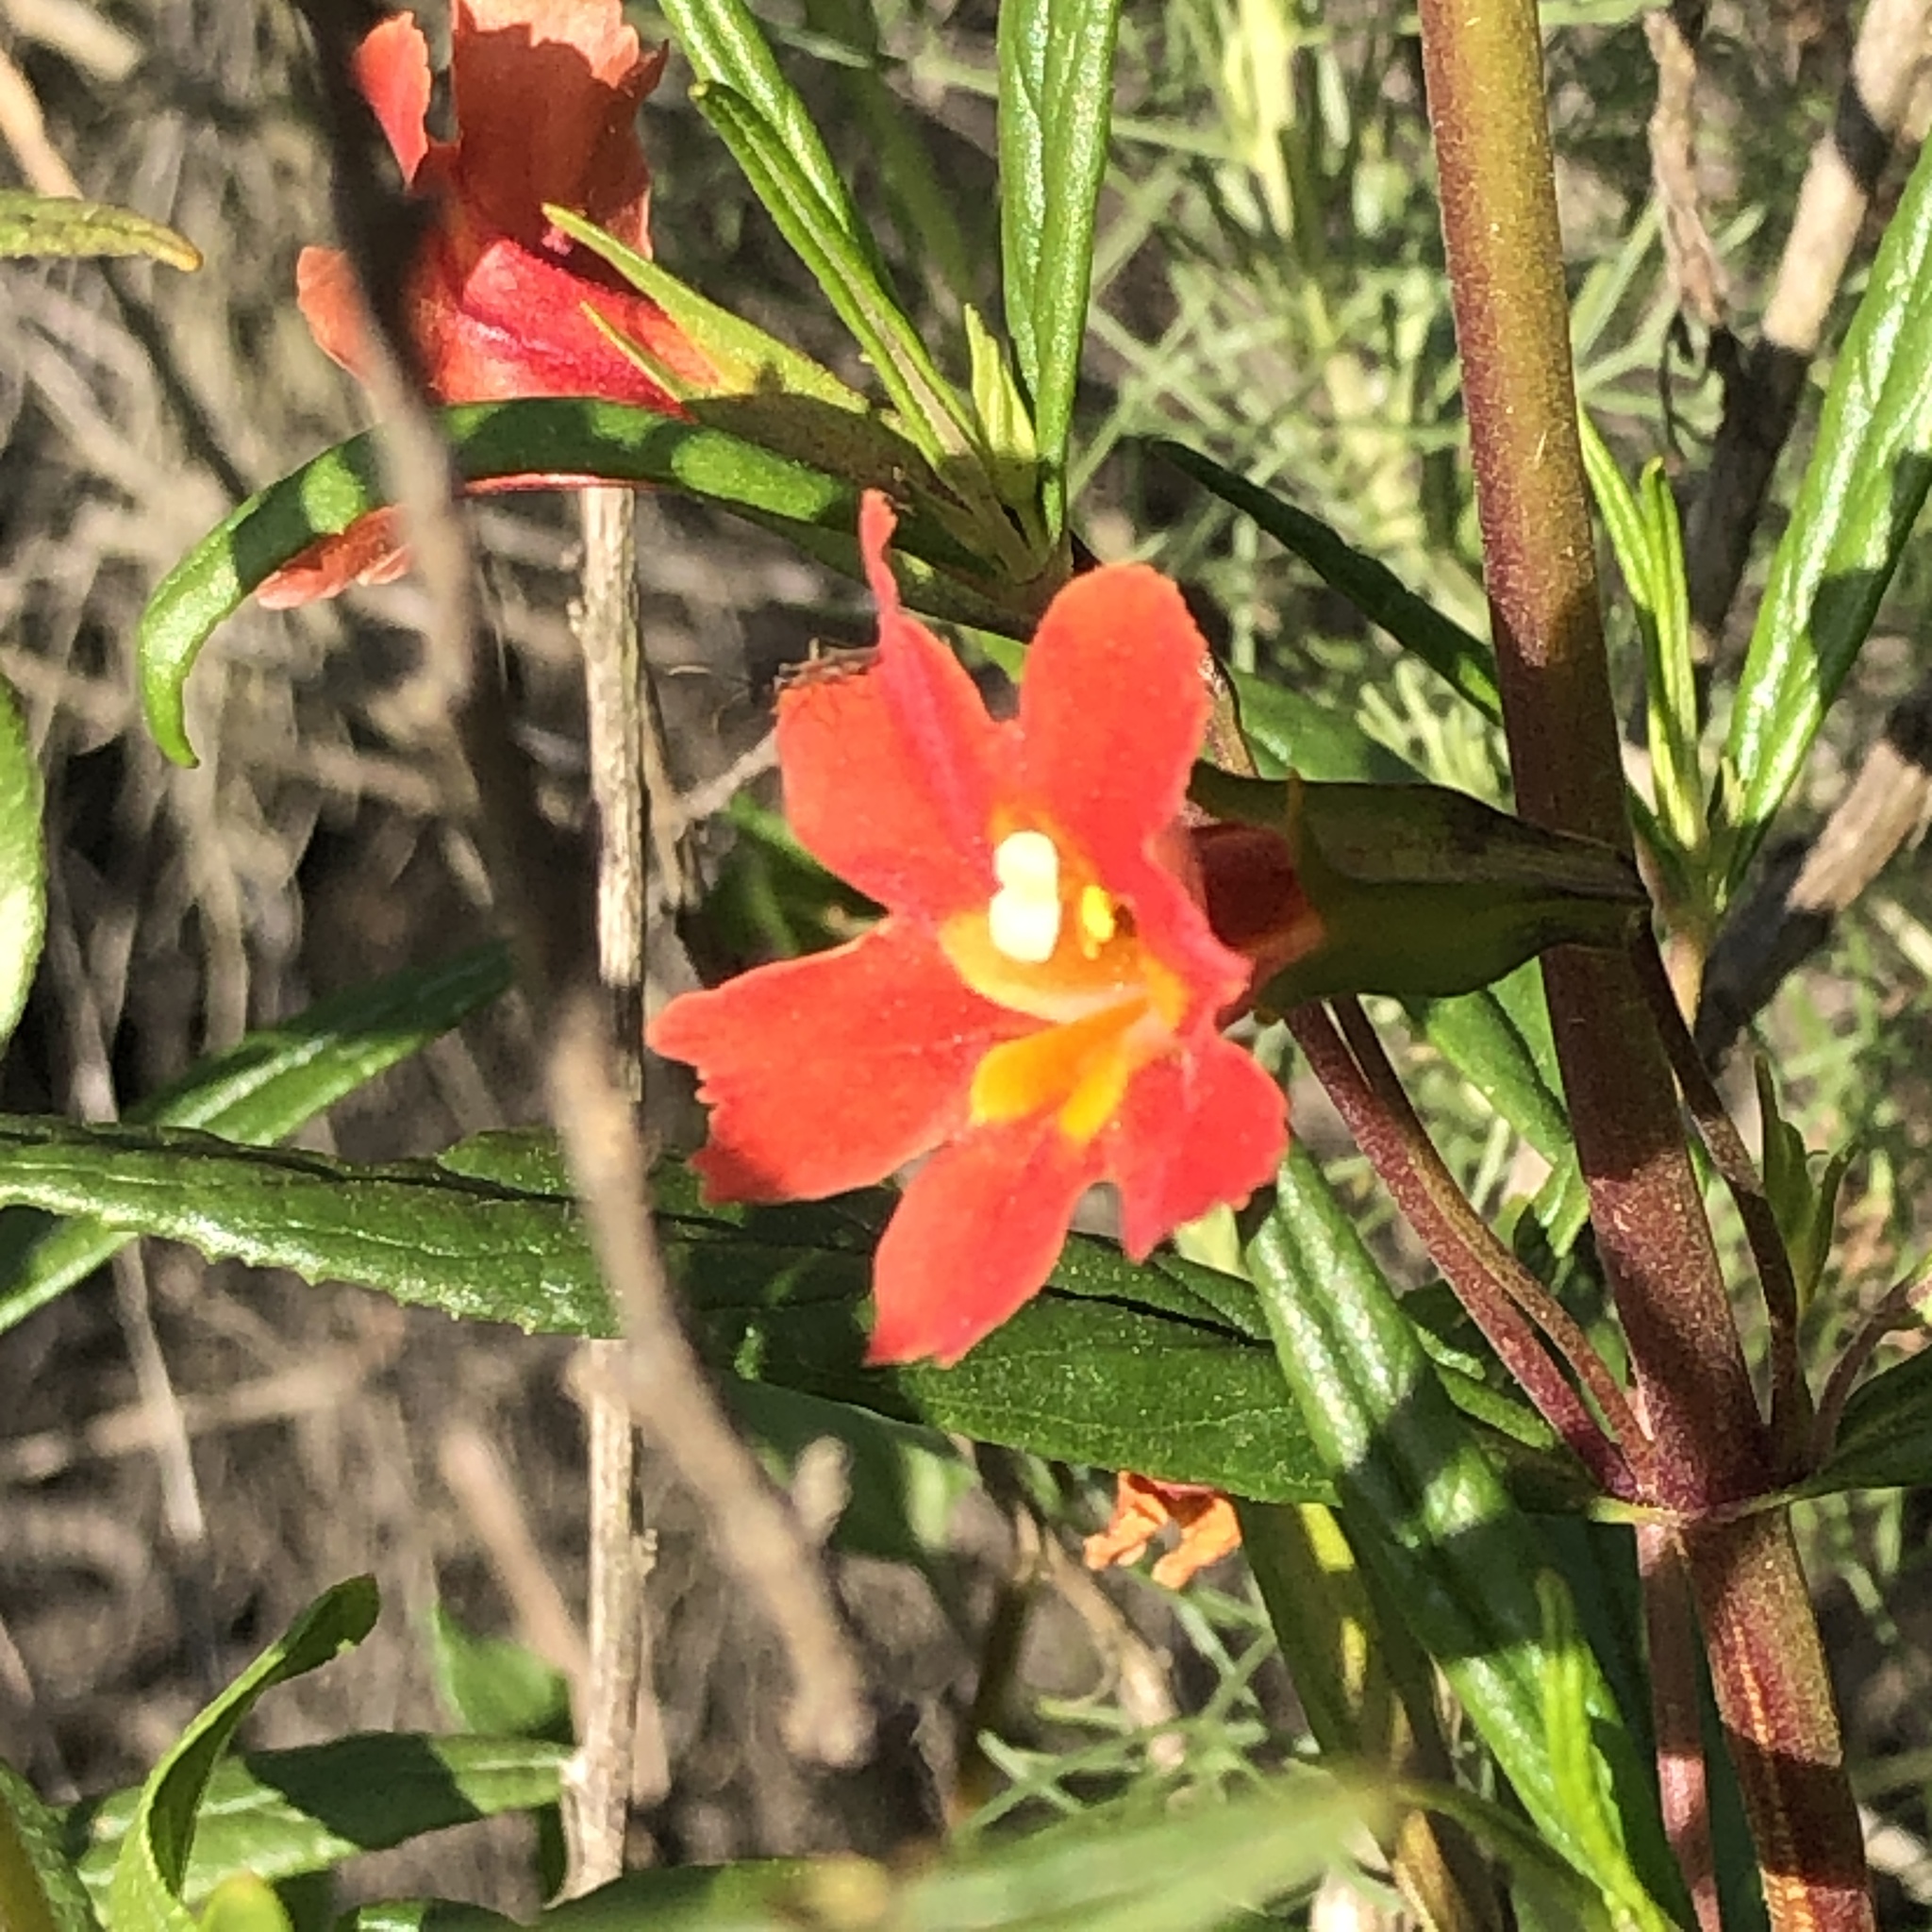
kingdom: Plantae
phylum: Tracheophyta
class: Magnoliopsida
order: Lamiales
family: Phrymaceae
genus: Diplacus
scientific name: Diplacus puniceus
